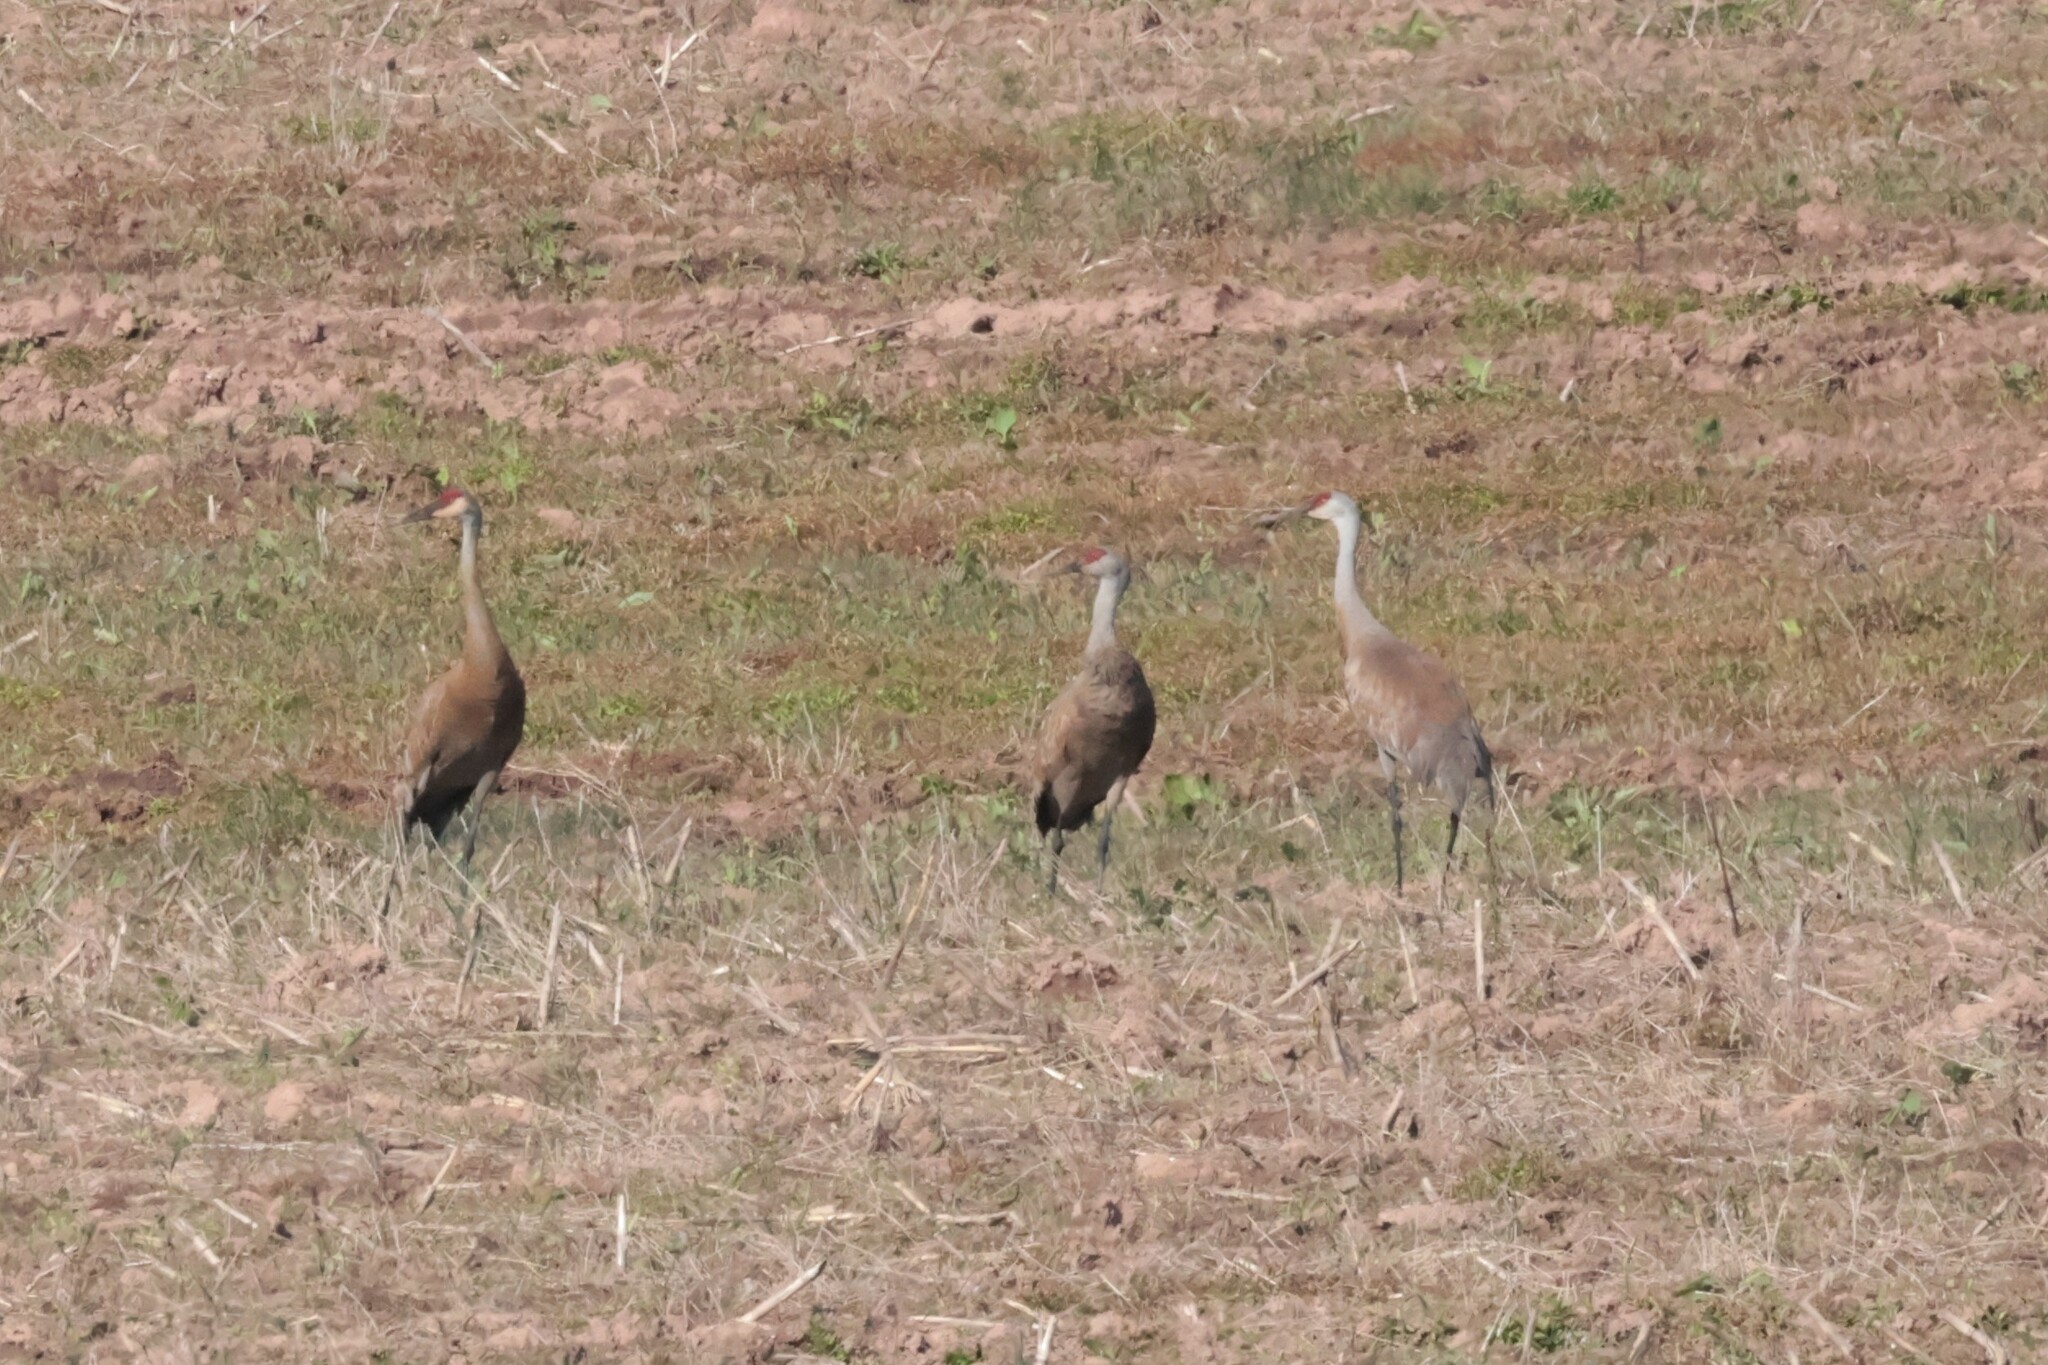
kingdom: Animalia
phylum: Chordata
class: Aves
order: Gruiformes
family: Gruidae
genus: Grus
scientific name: Grus canadensis
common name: Sandhill crane
